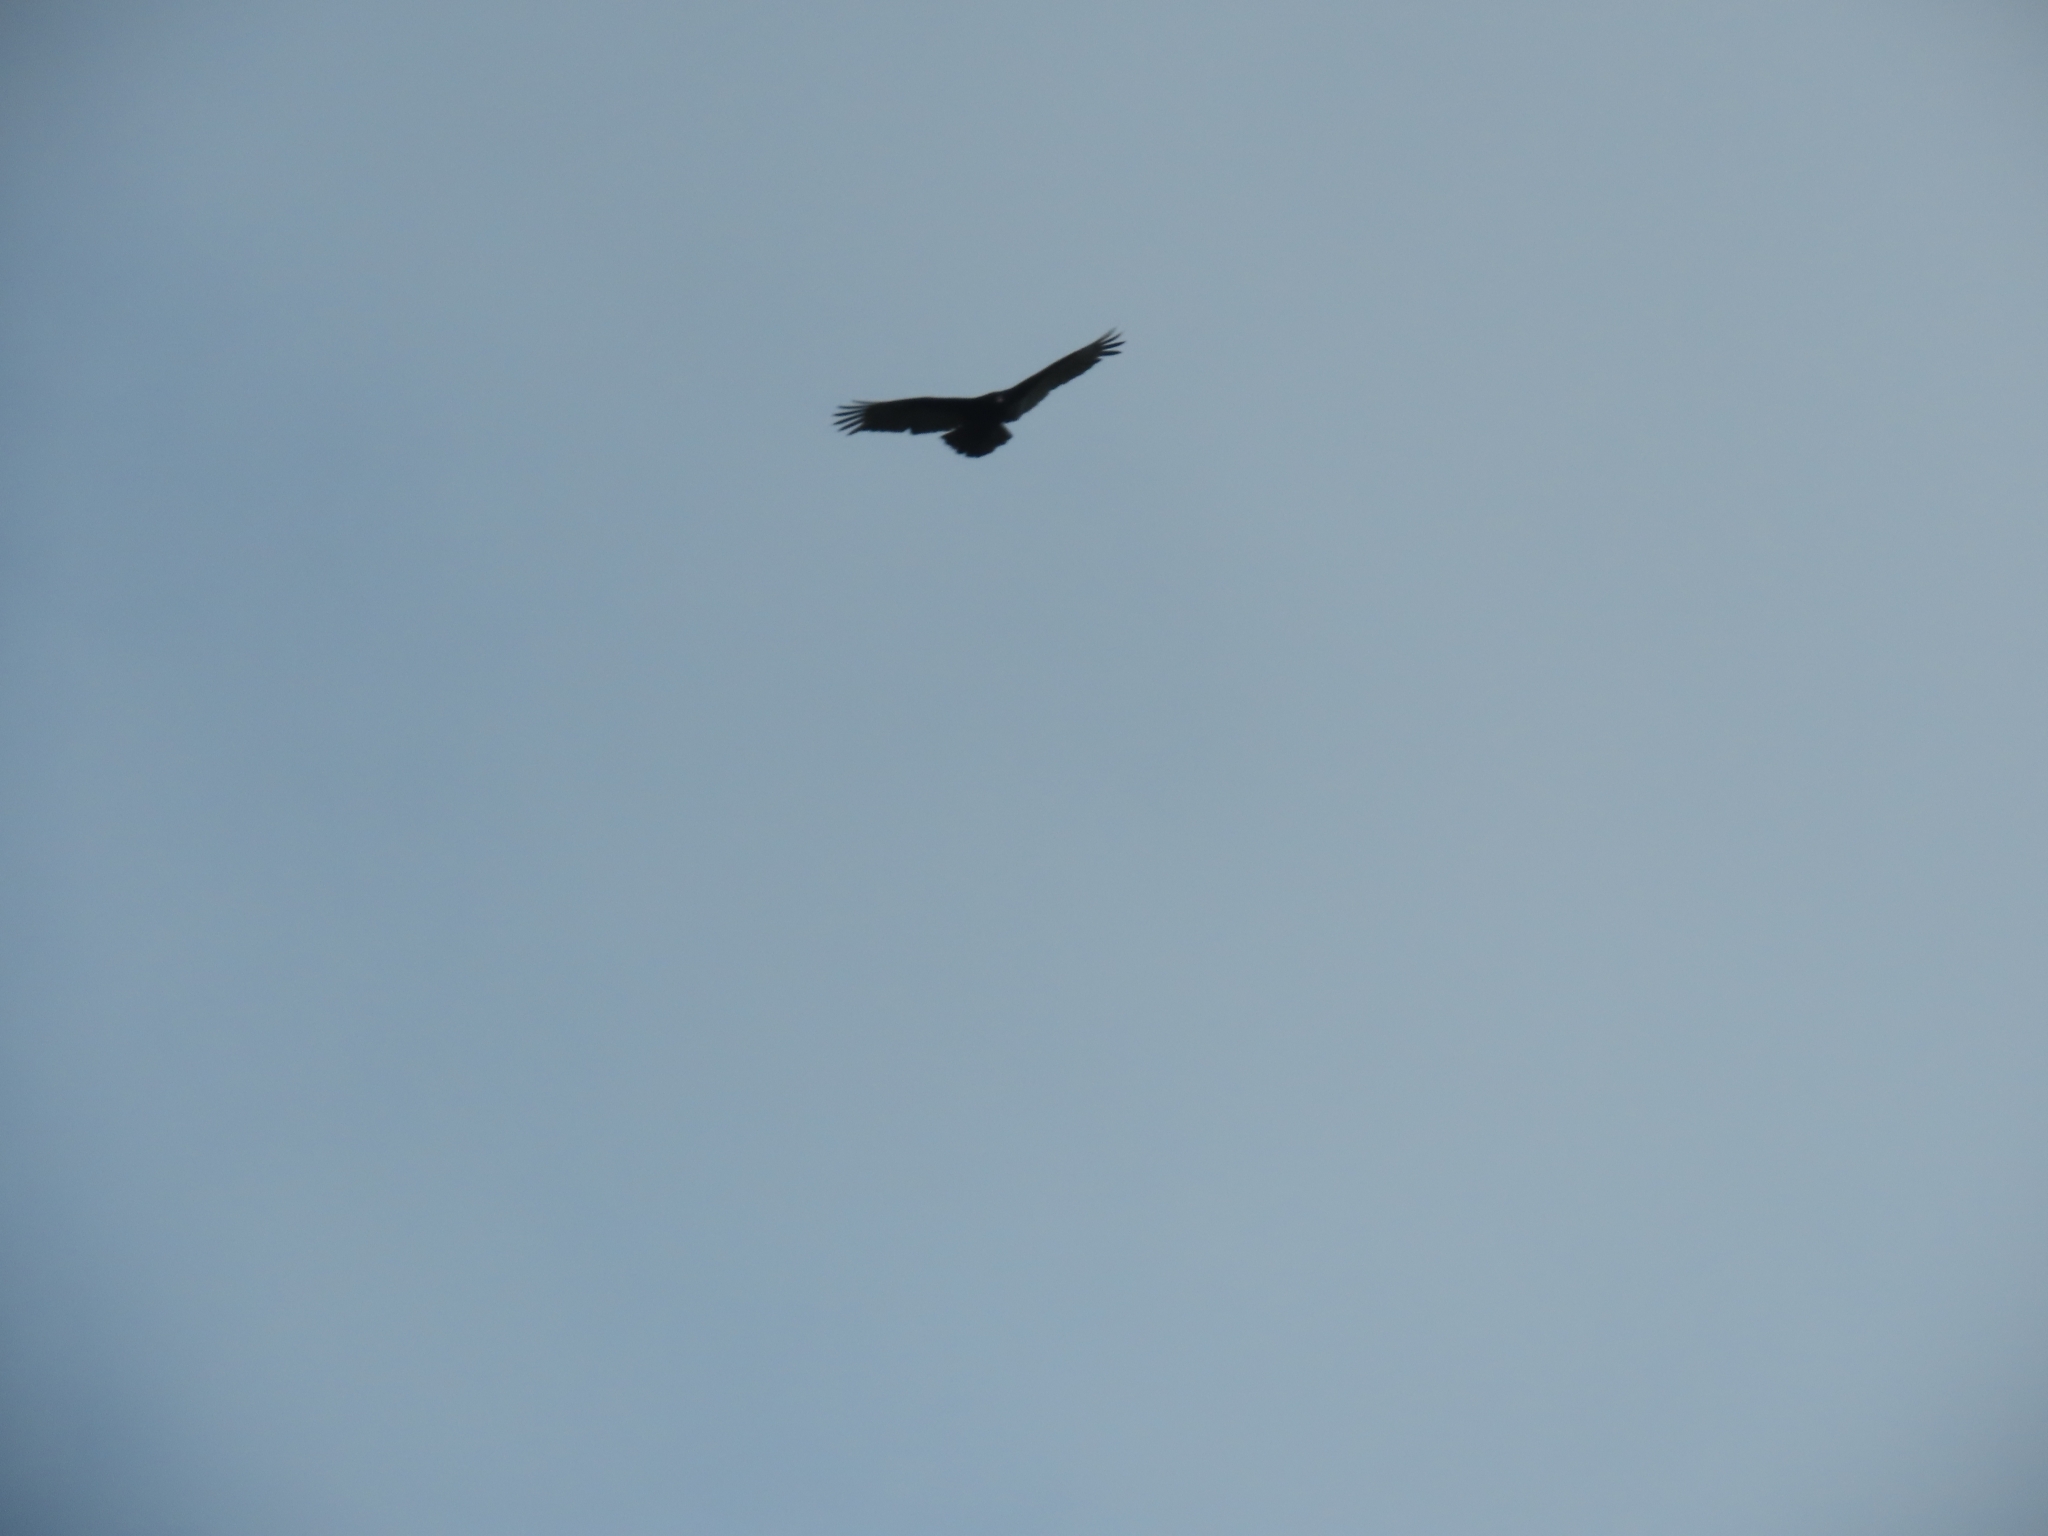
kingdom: Animalia
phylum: Chordata
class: Aves
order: Accipitriformes
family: Cathartidae
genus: Cathartes
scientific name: Cathartes aura
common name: Turkey vulture
